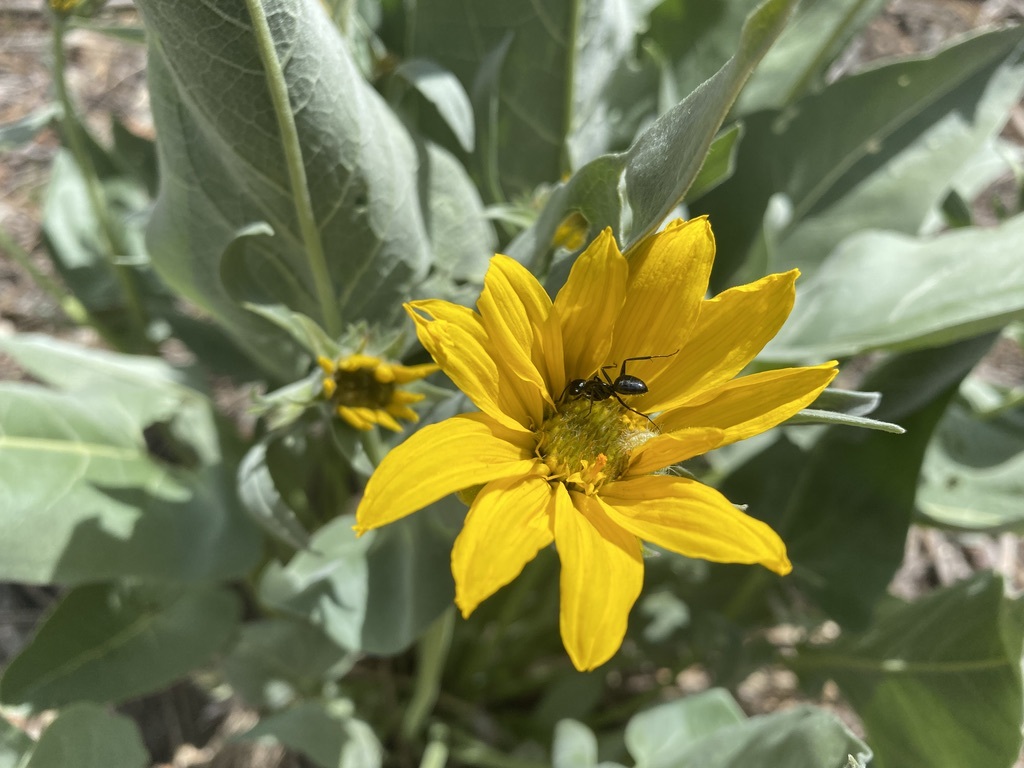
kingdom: Plantae
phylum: Tracheophyta
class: Magnoliopsida
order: Asterales
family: Asteraceae
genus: Wyethia
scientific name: Wyethia sagittata
